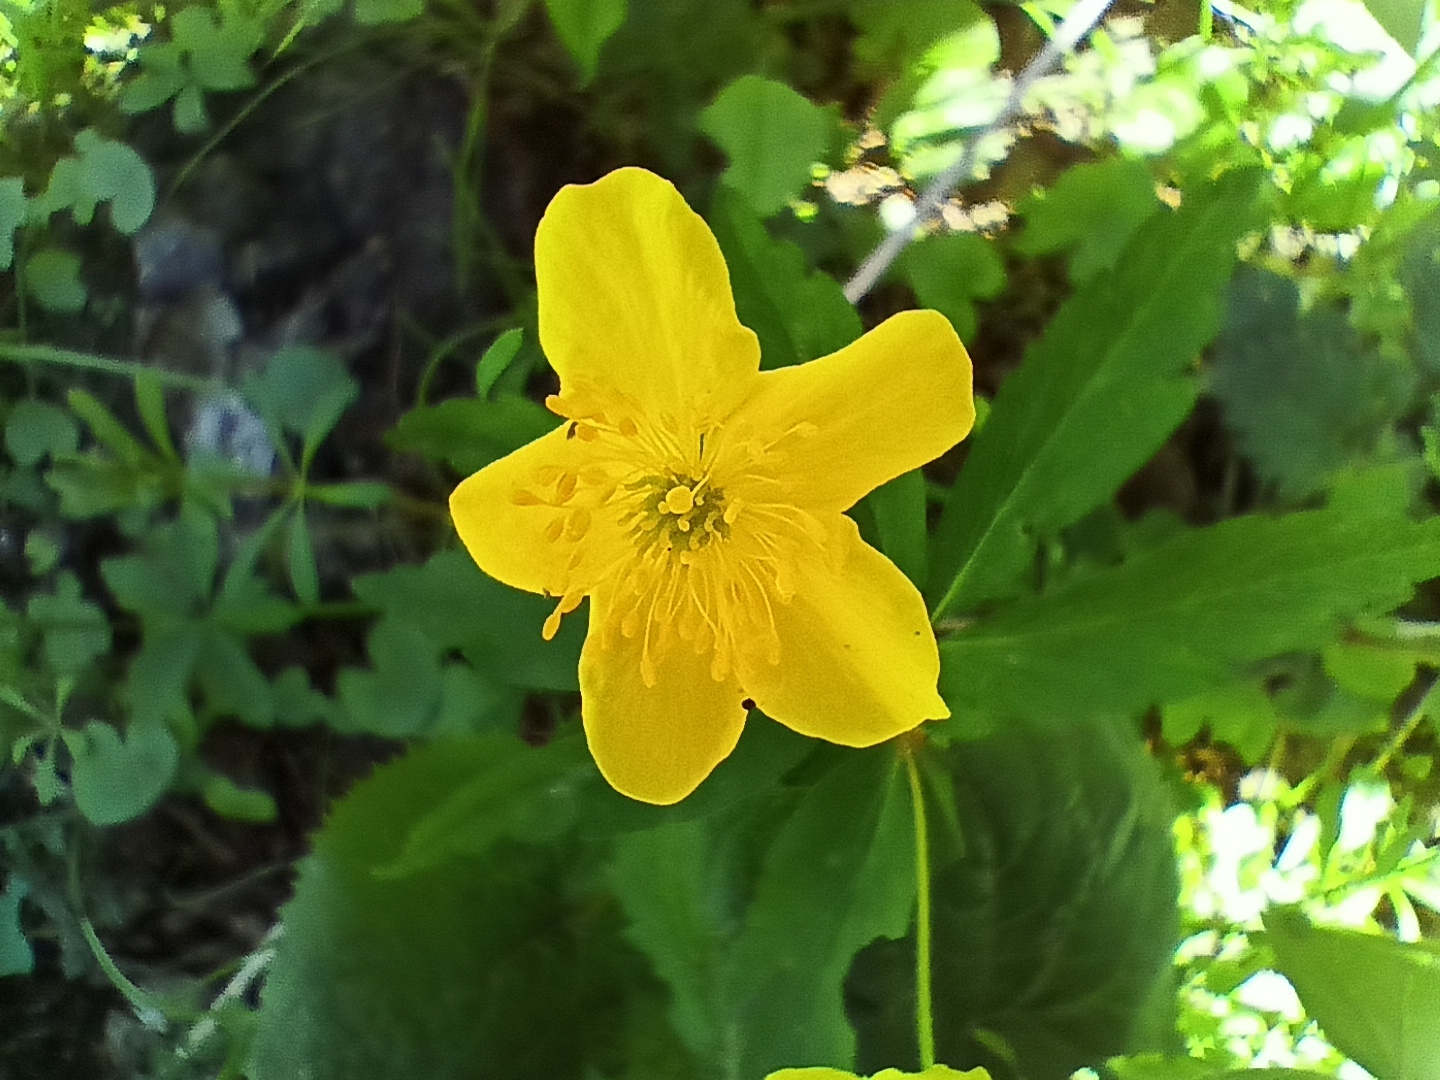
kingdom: Plantae
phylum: Tracheophyta
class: Magnoliopsida
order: Ranunculales
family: Ranunculaceae
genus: Anemone
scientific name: Anemone ranunculoides
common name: Yellow anemone
